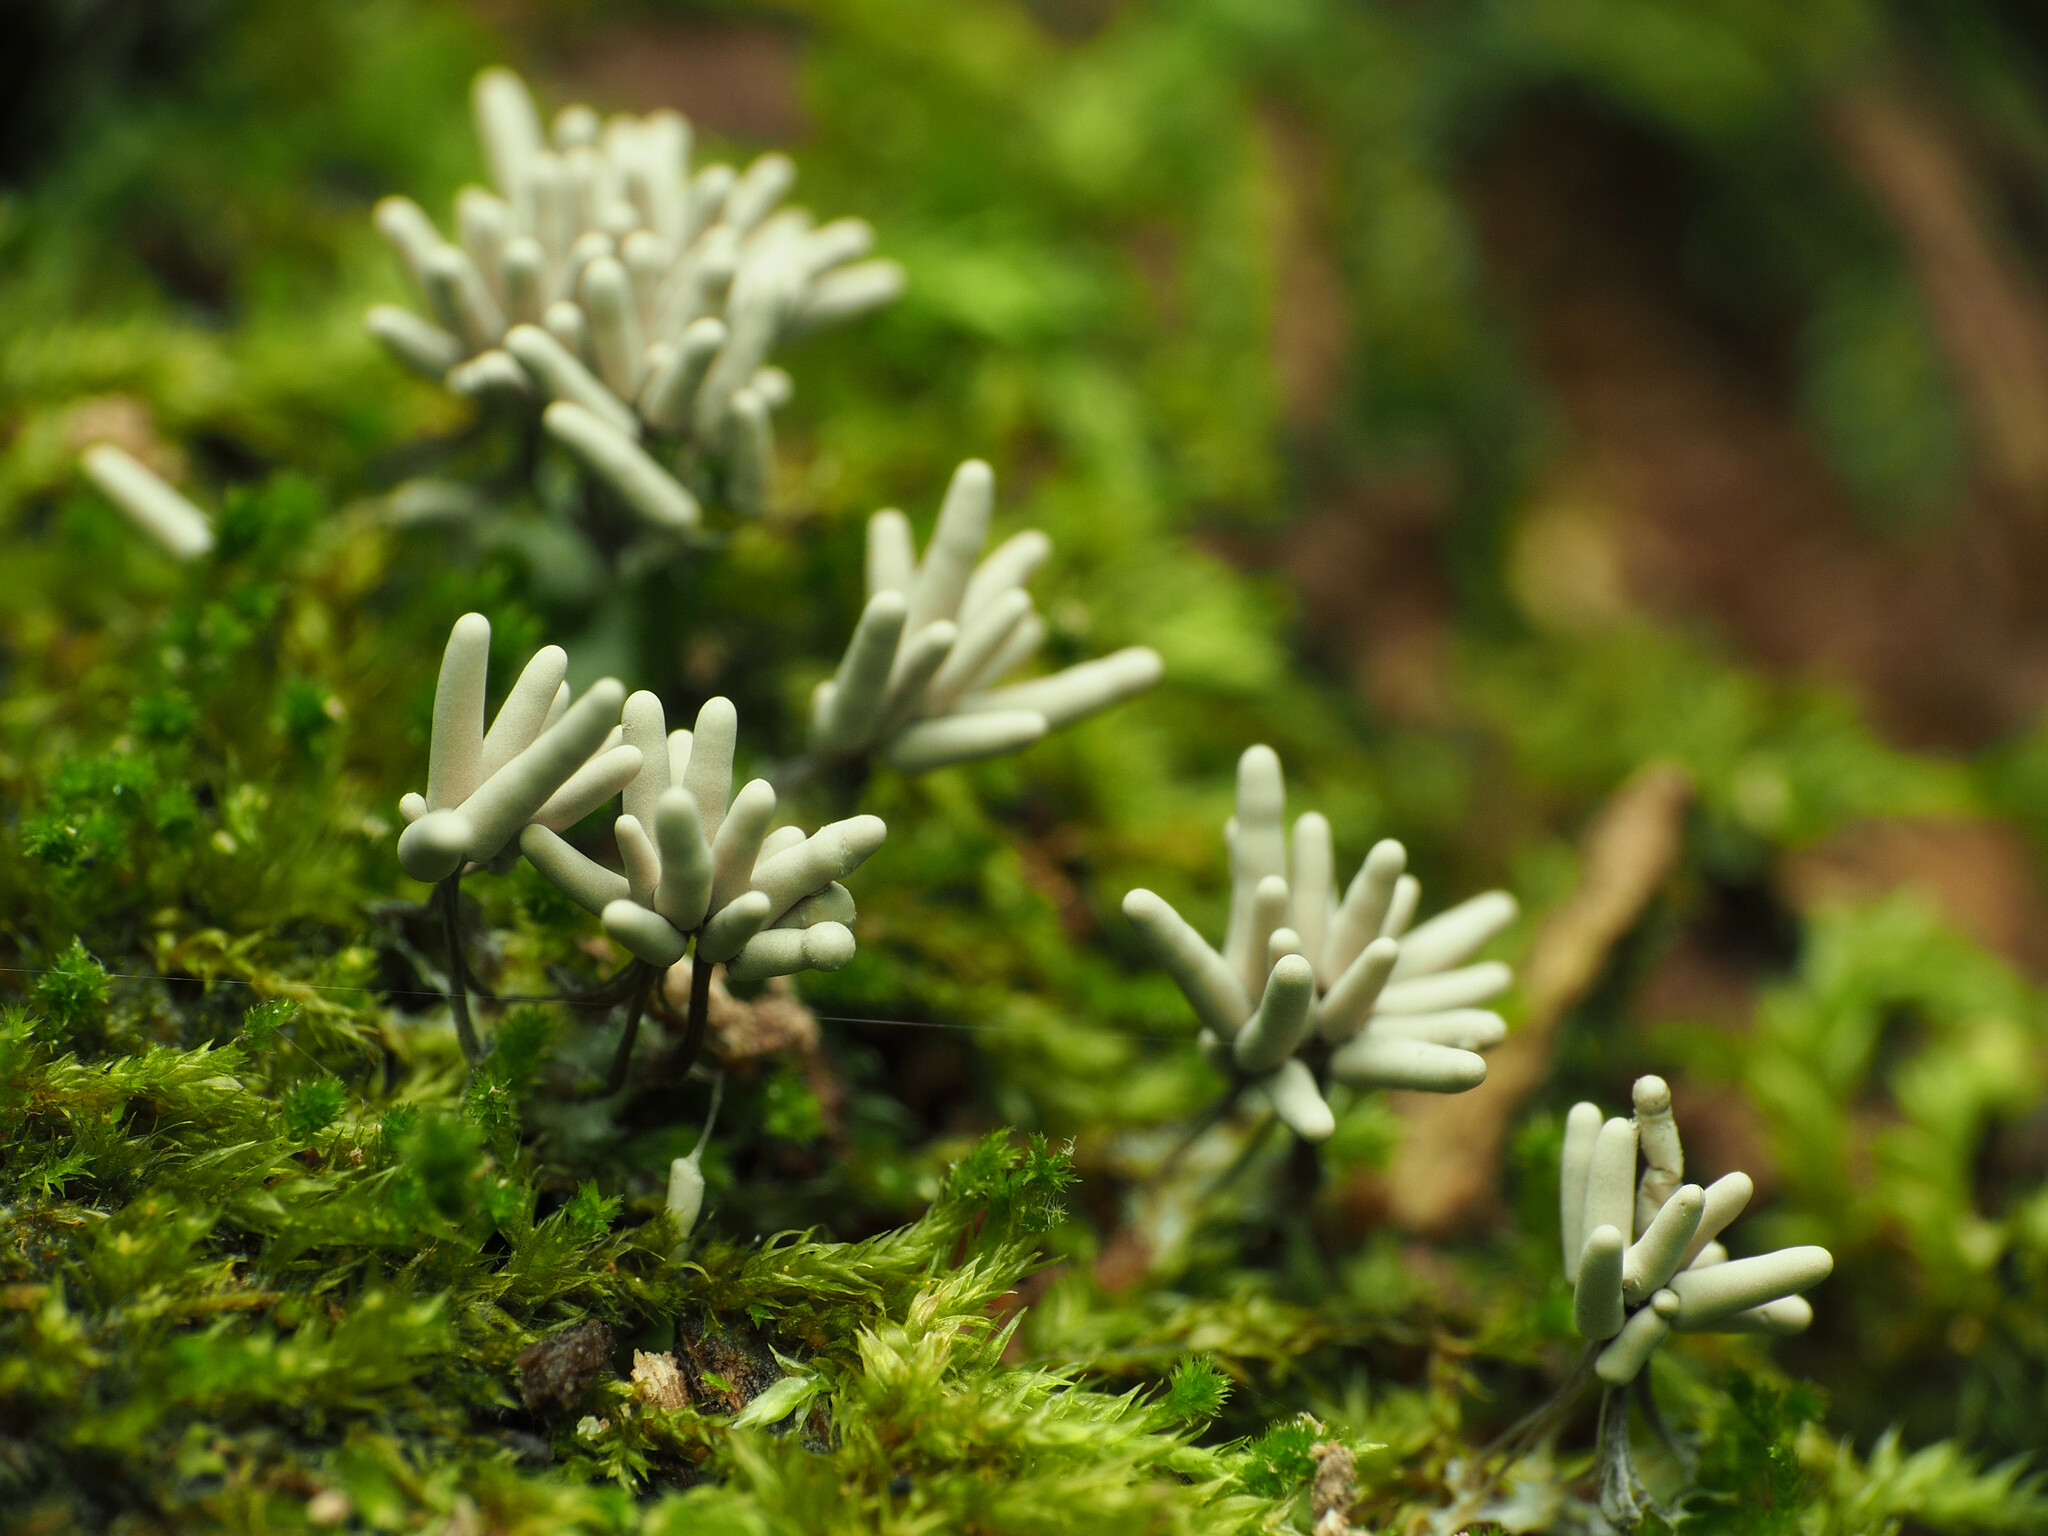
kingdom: Protozoa
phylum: Mycetozoa
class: Myxomycetes
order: Trichiales
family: Arcyriaceae
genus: Arcyria
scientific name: Arcyria cinerea
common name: White carnival candy slime mold
